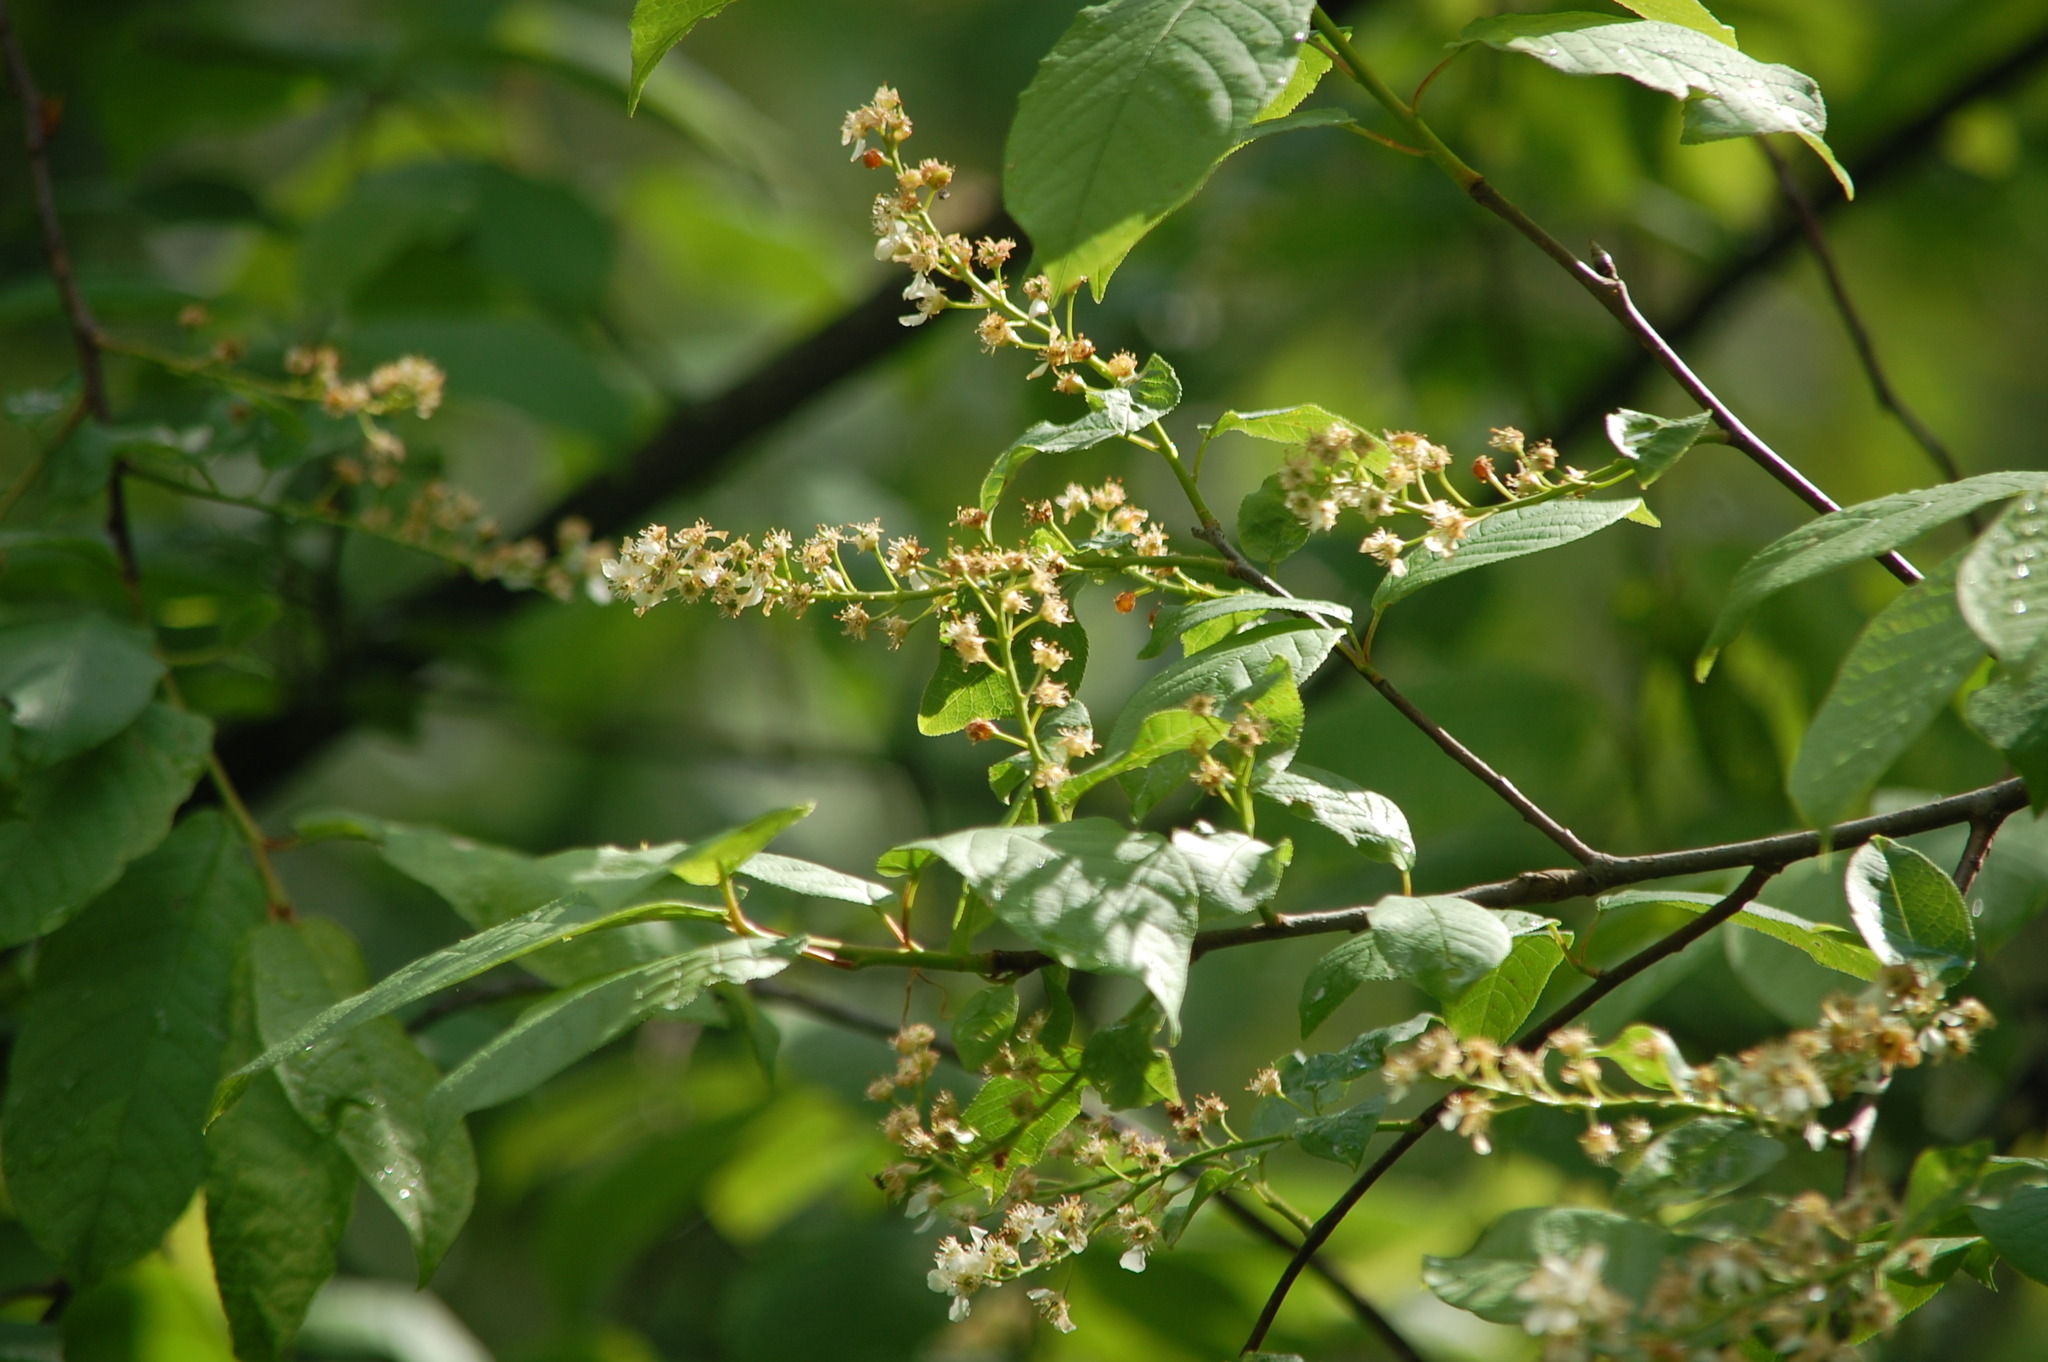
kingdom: Plantae
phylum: Tracheophyta
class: Magnoliopsida
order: Rosales
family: Rosaceae
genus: Prunus
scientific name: Prunus padus
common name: Bird cherry
